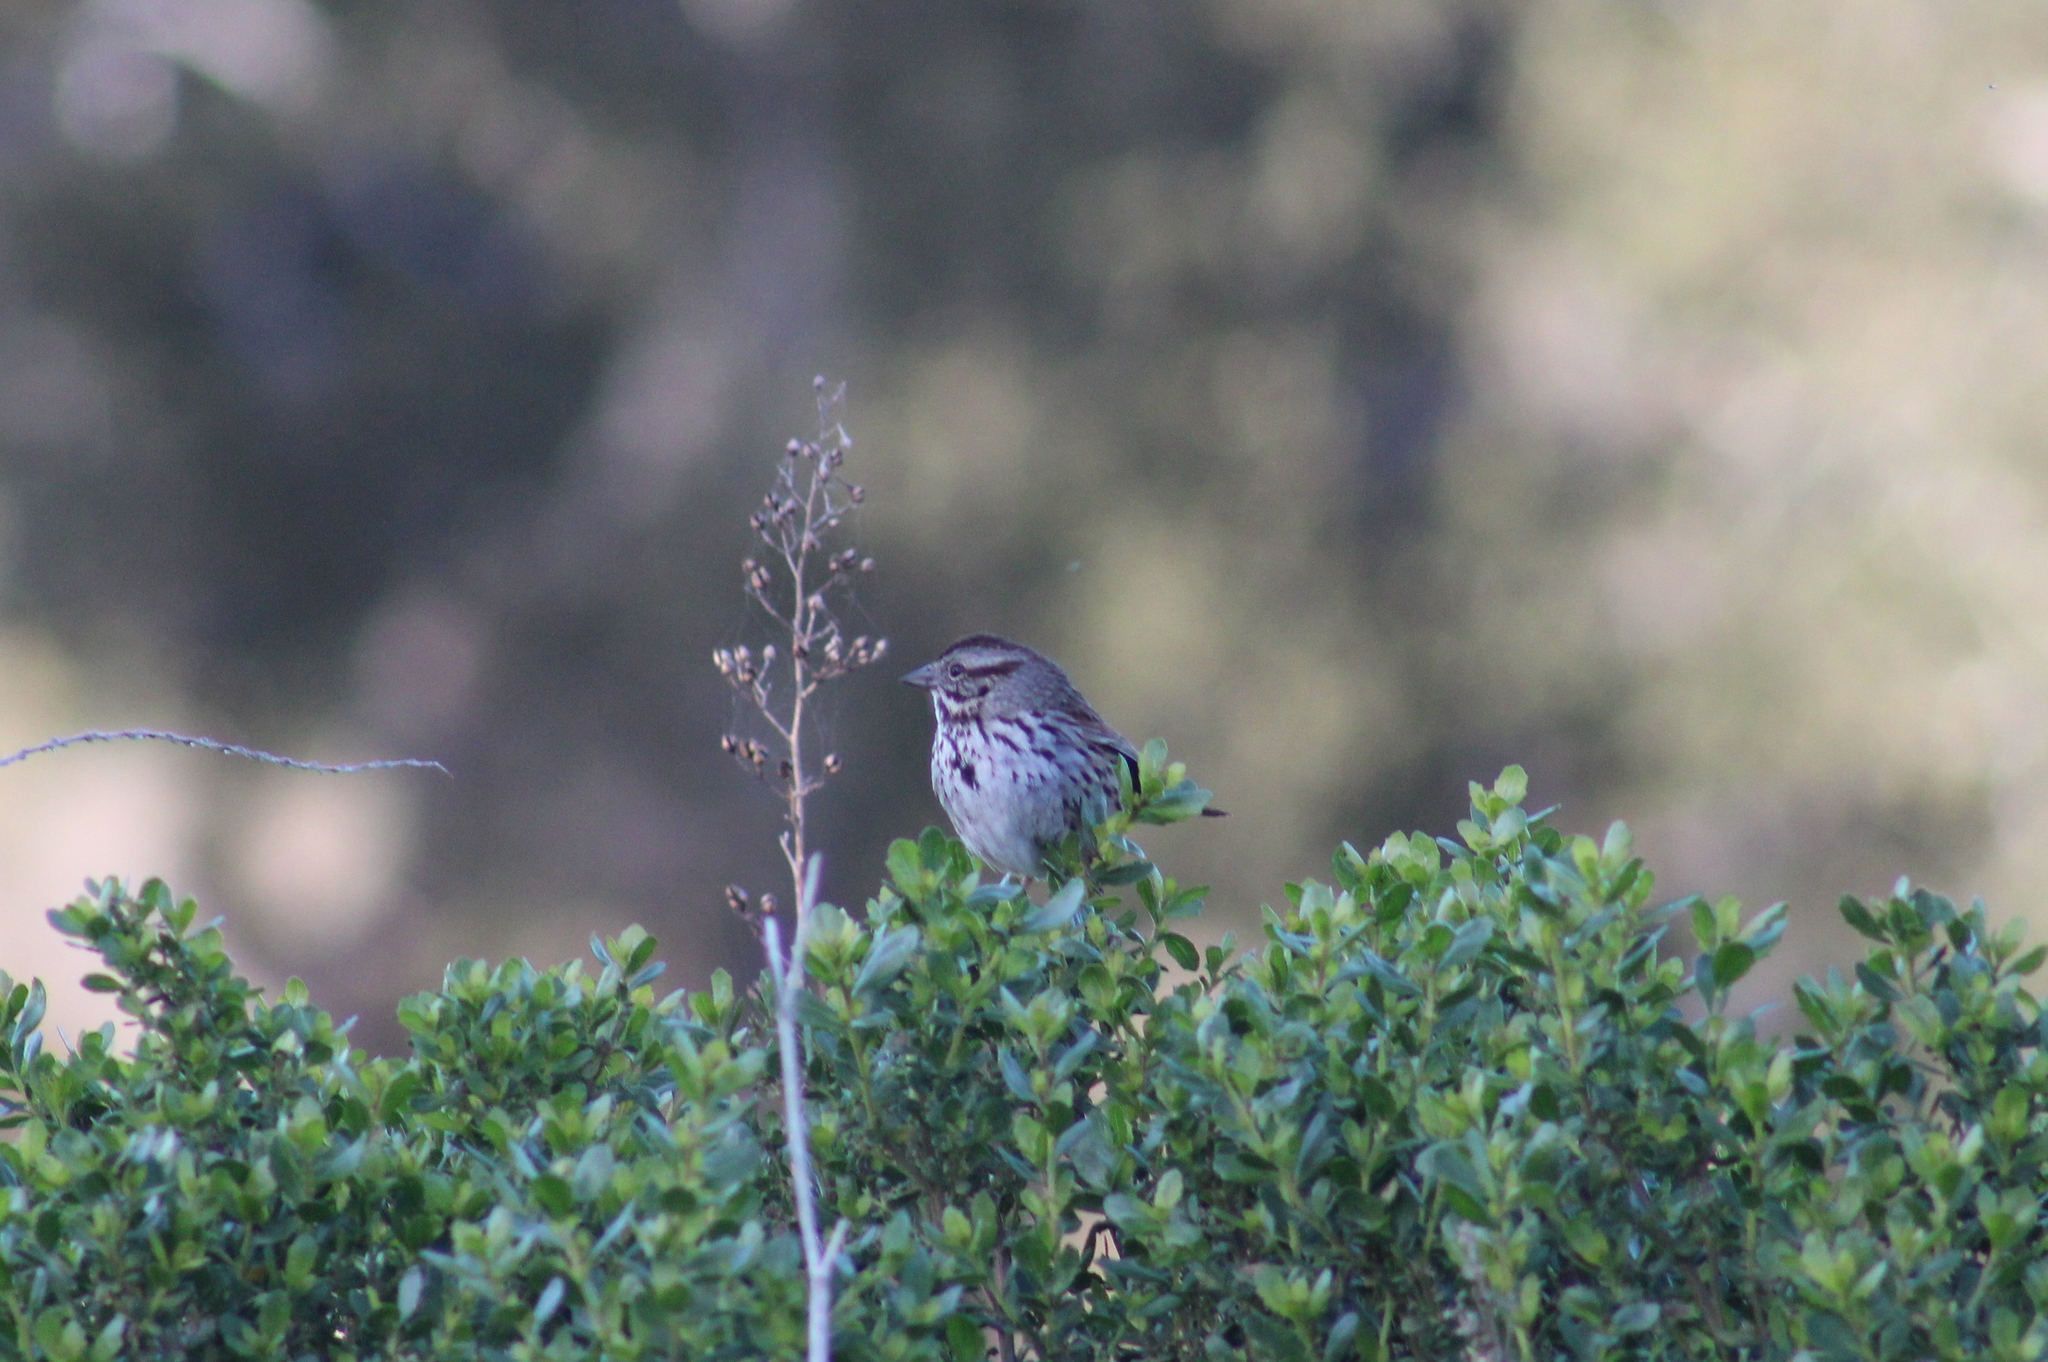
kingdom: Animalia
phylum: Chordata
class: Aves
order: Passeriformes
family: Passerellidae
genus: Melospiza
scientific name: Melospiza melodia
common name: Song sparrow
